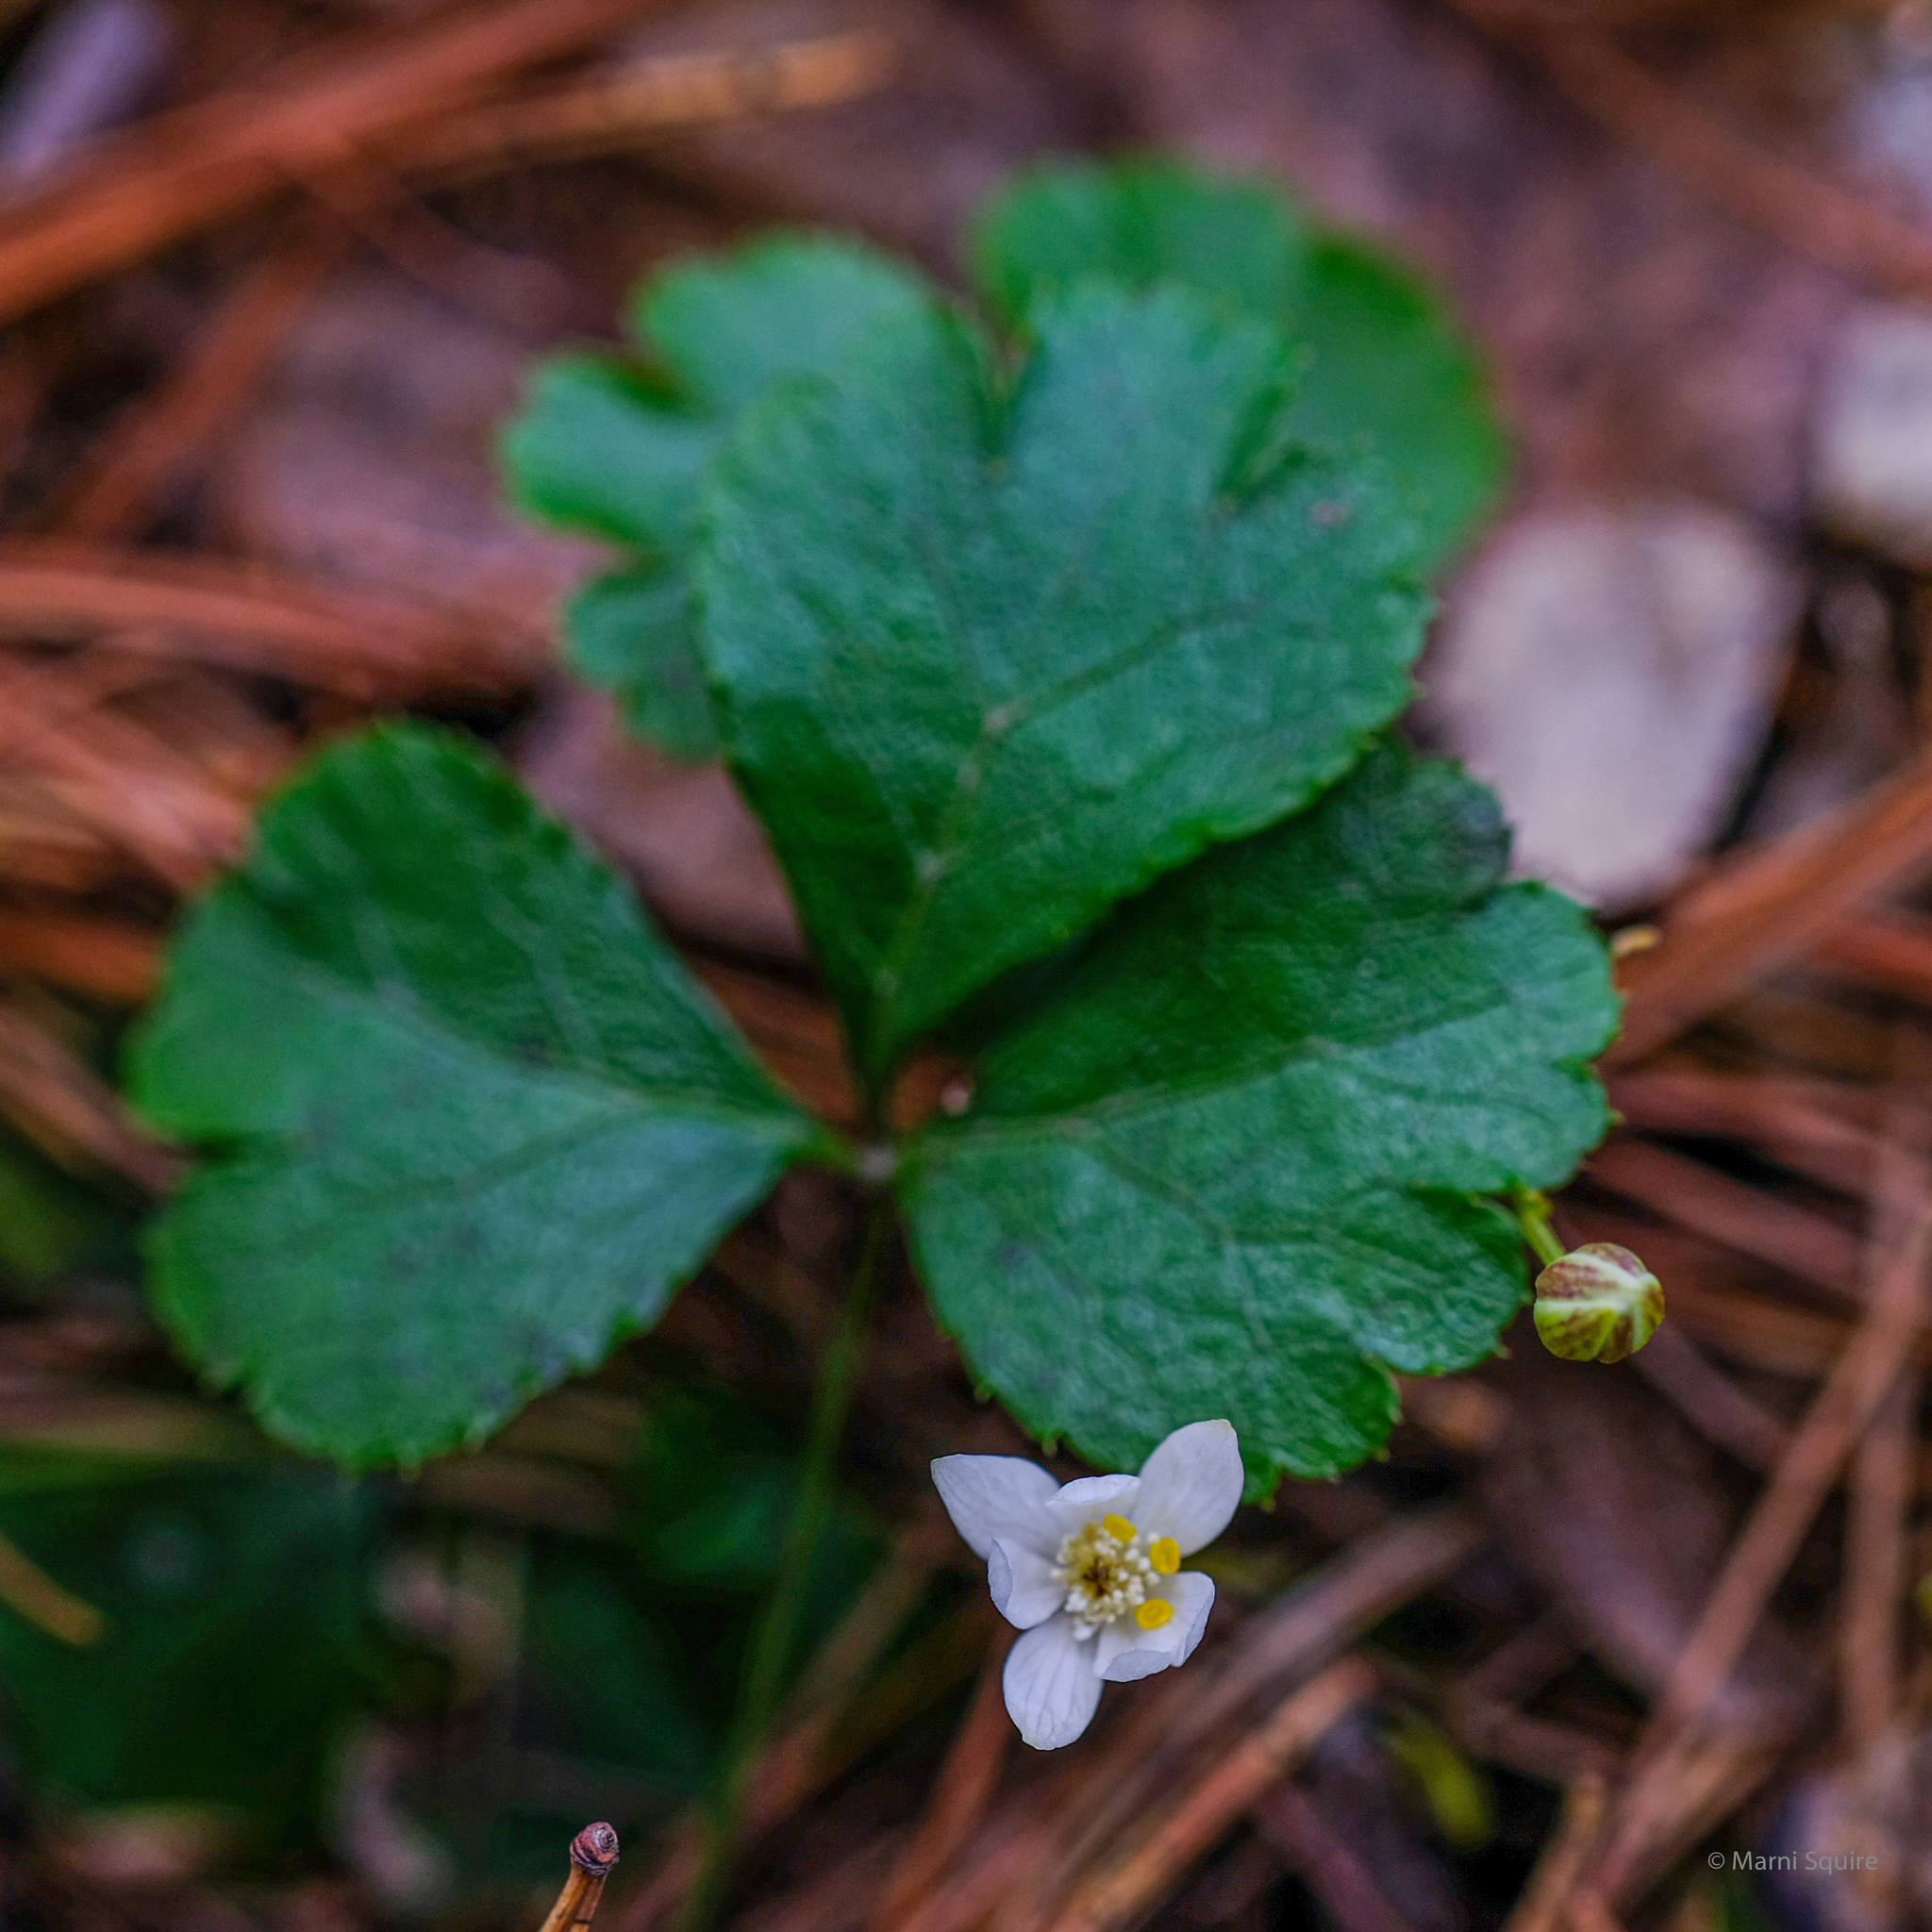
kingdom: Plantae
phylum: Tracheophyta
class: Magnoliopsida
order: Ranunculales
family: Ranunculaceae
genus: Coptis
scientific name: Coptis trifolia
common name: Canker-root
